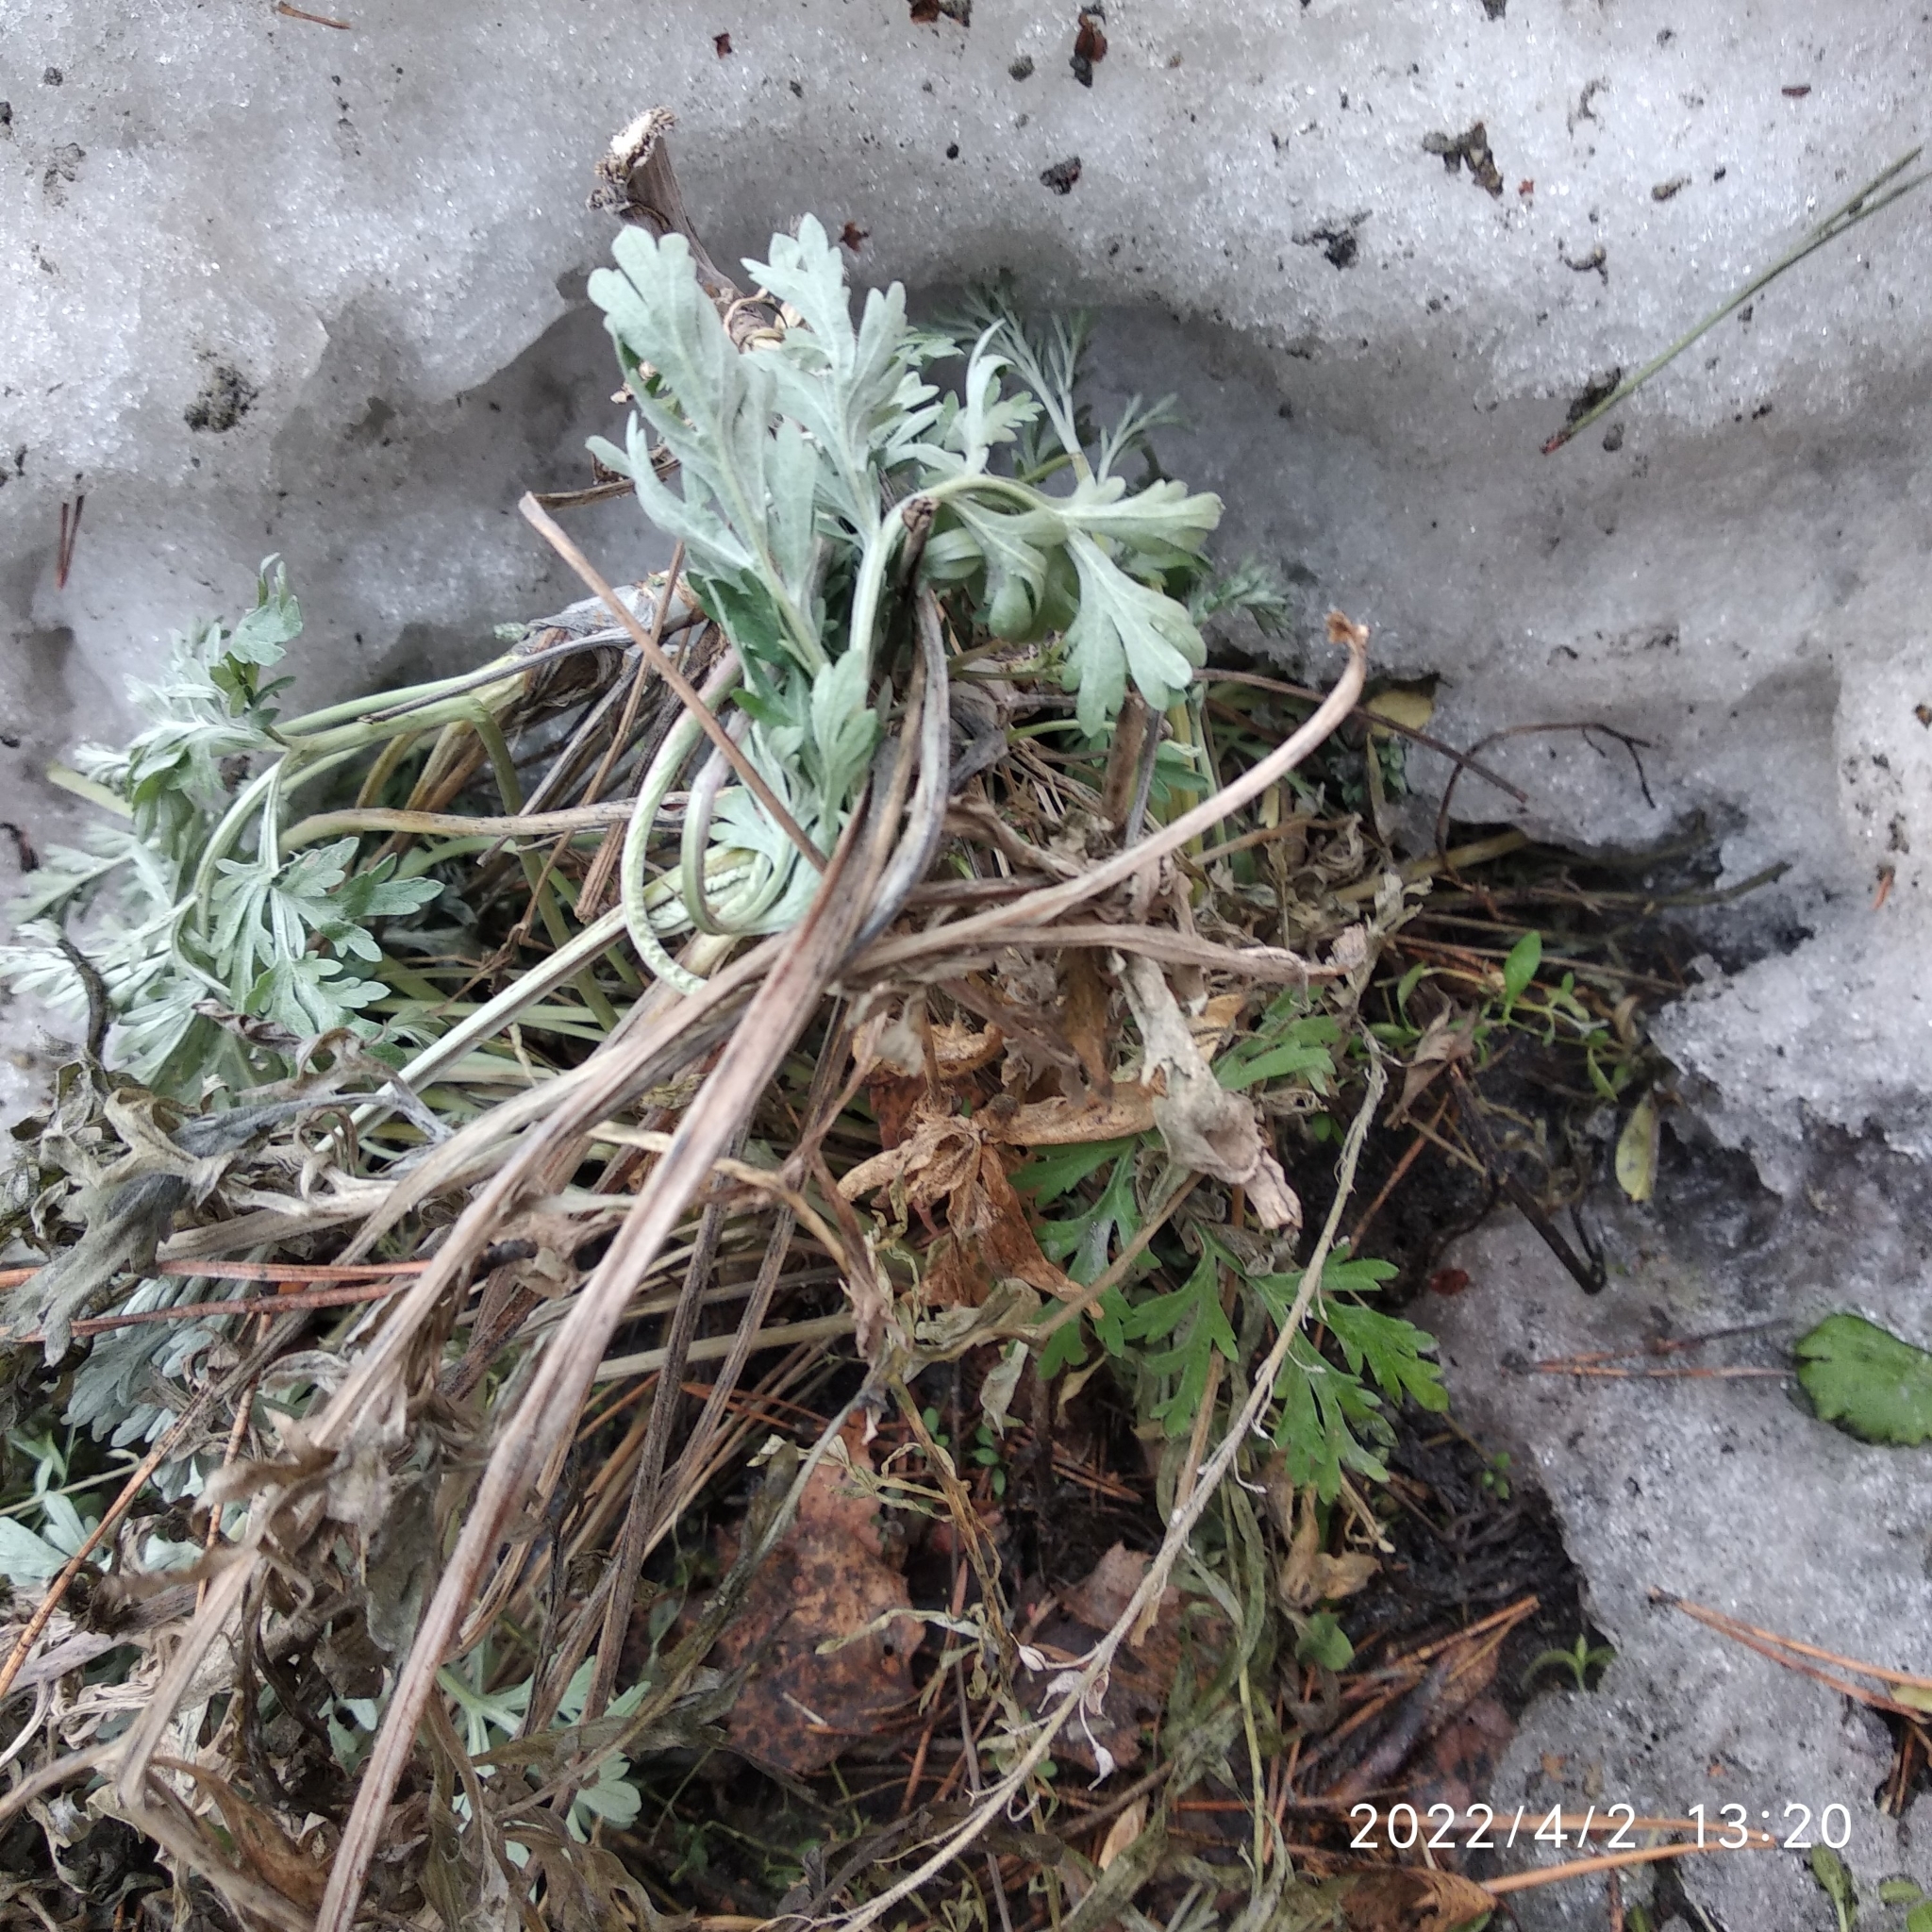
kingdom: Plantae
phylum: Tracheophyta
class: Magnoliopsida
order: Asterales
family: Asteraceae
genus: Artemisia
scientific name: Artemisia sieversiana
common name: Sieversian wormwood
